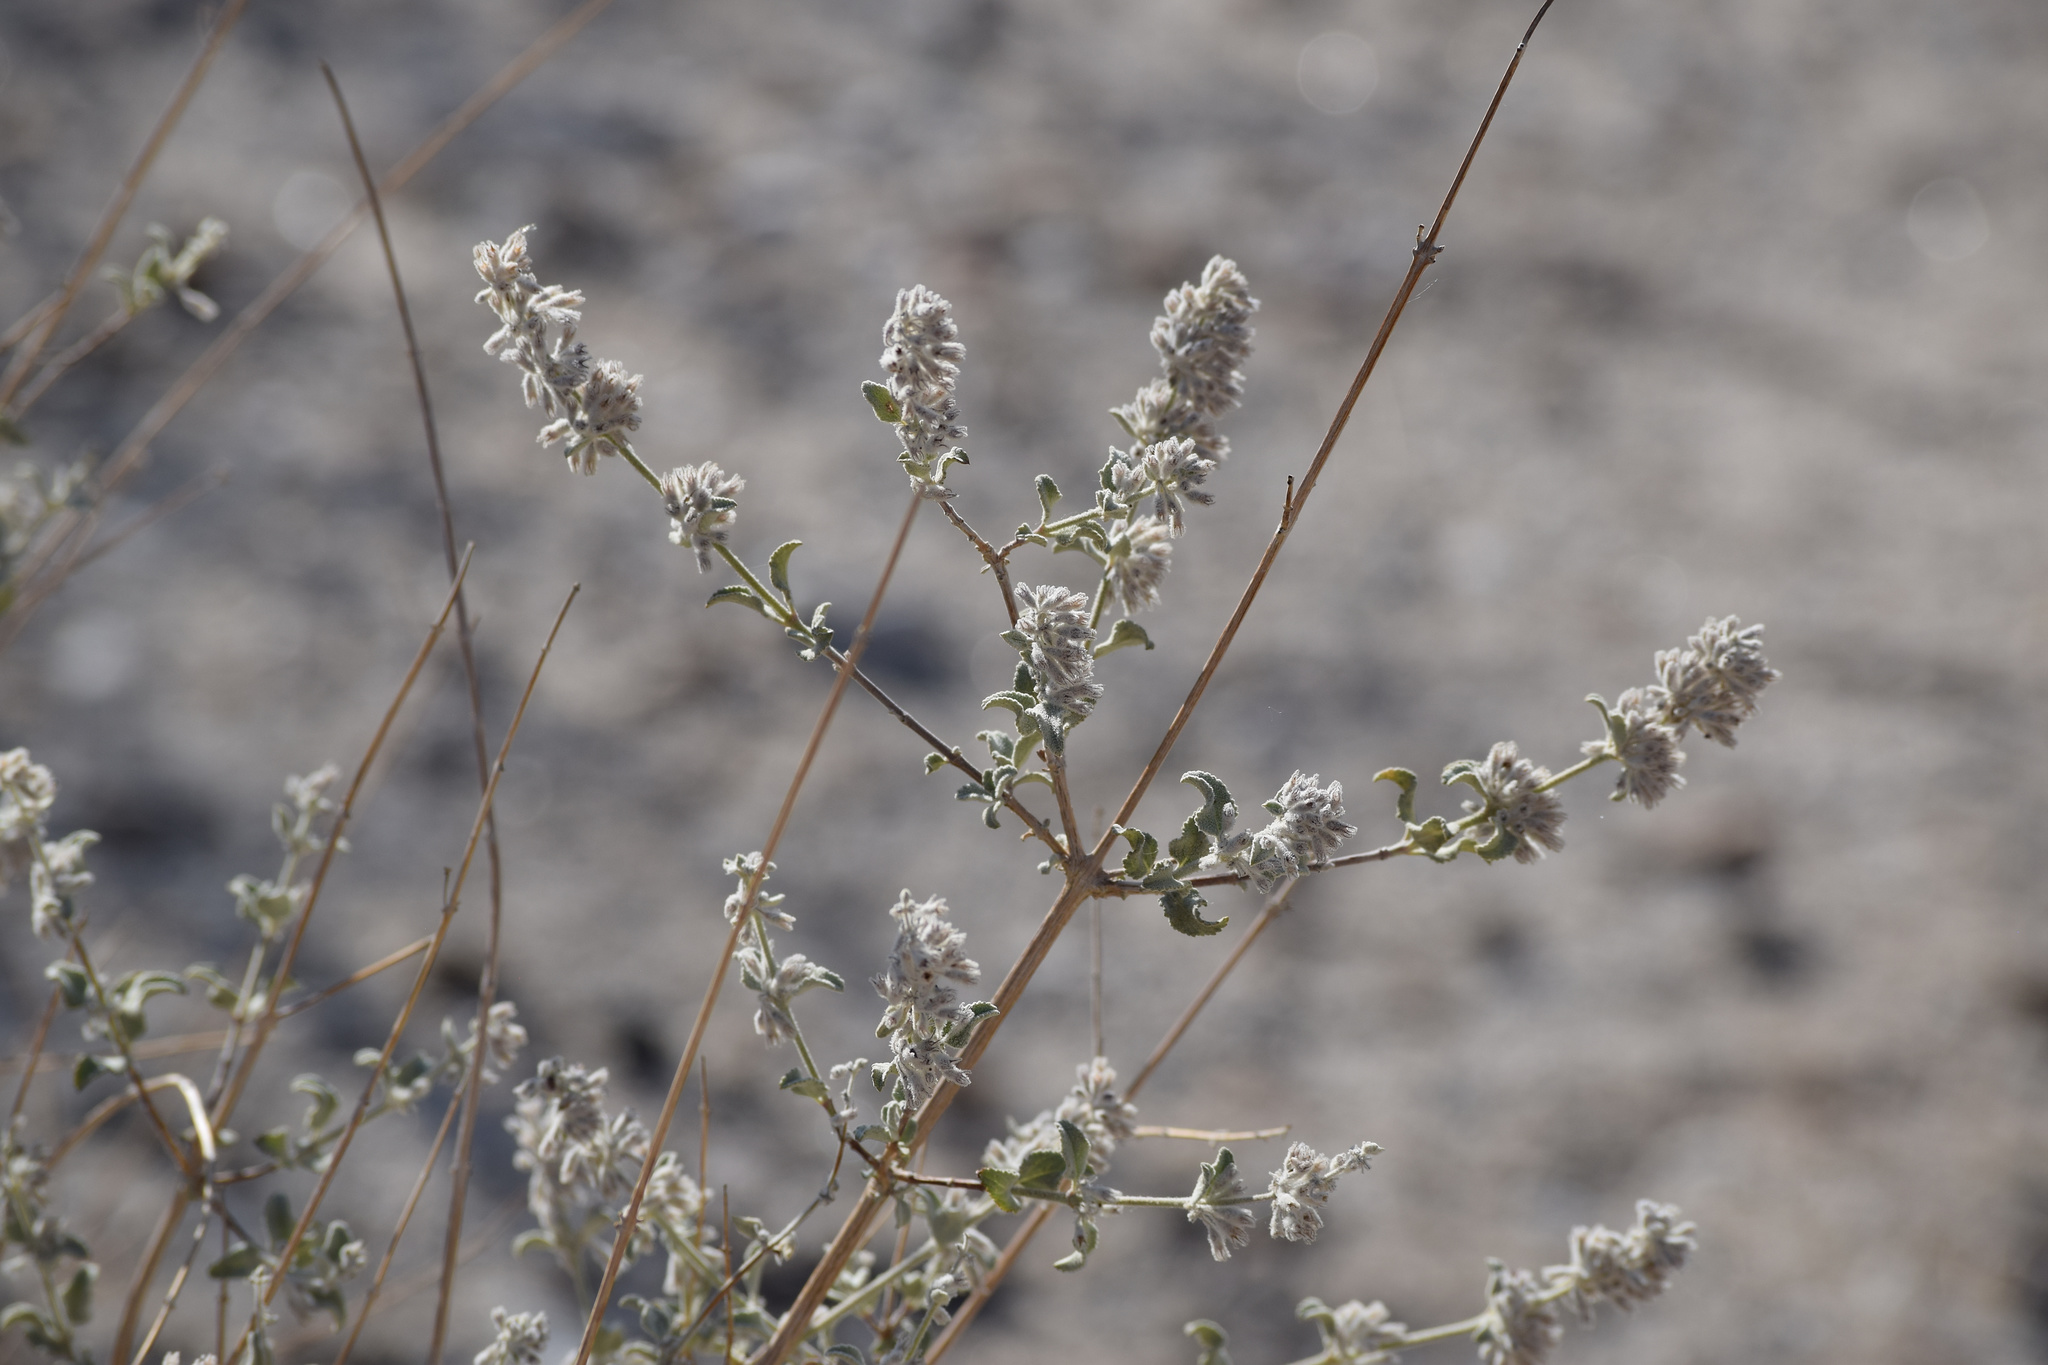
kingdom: Plantae
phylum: Tracheophyta
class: Magnoliopsida
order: Lamiales
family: Lamiaceae
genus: Condea
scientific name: Condea emoryi
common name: Chia
